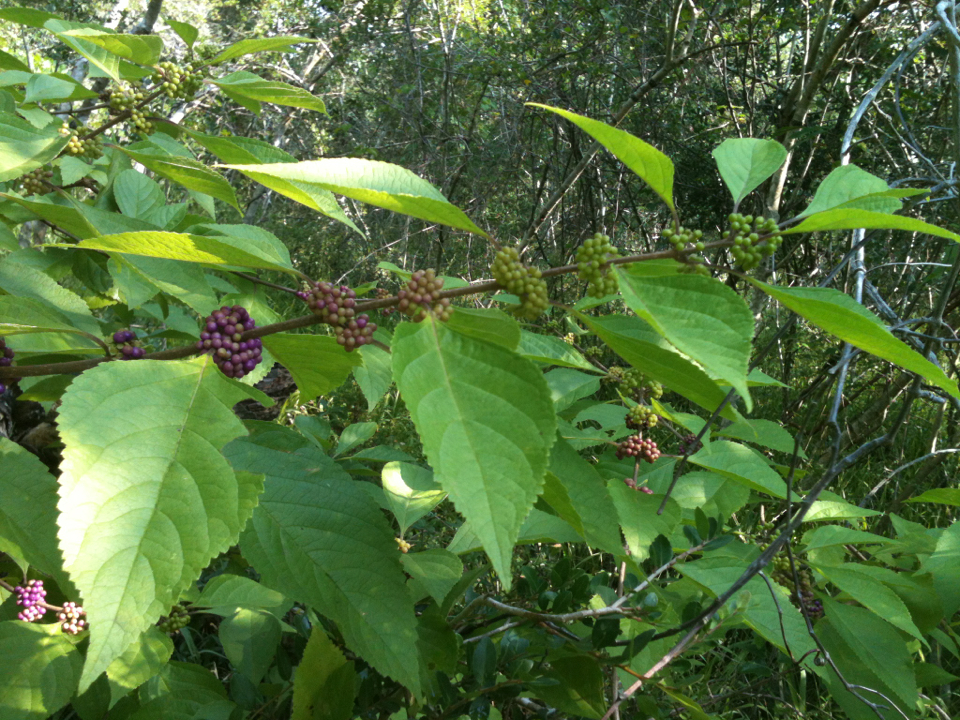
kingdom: Plantae
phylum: Tracheophyta
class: Magnoliopsida
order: Lamiales
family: Lamiaceae
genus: Callicarpa
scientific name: Callicarpa americana
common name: American beautyberry
